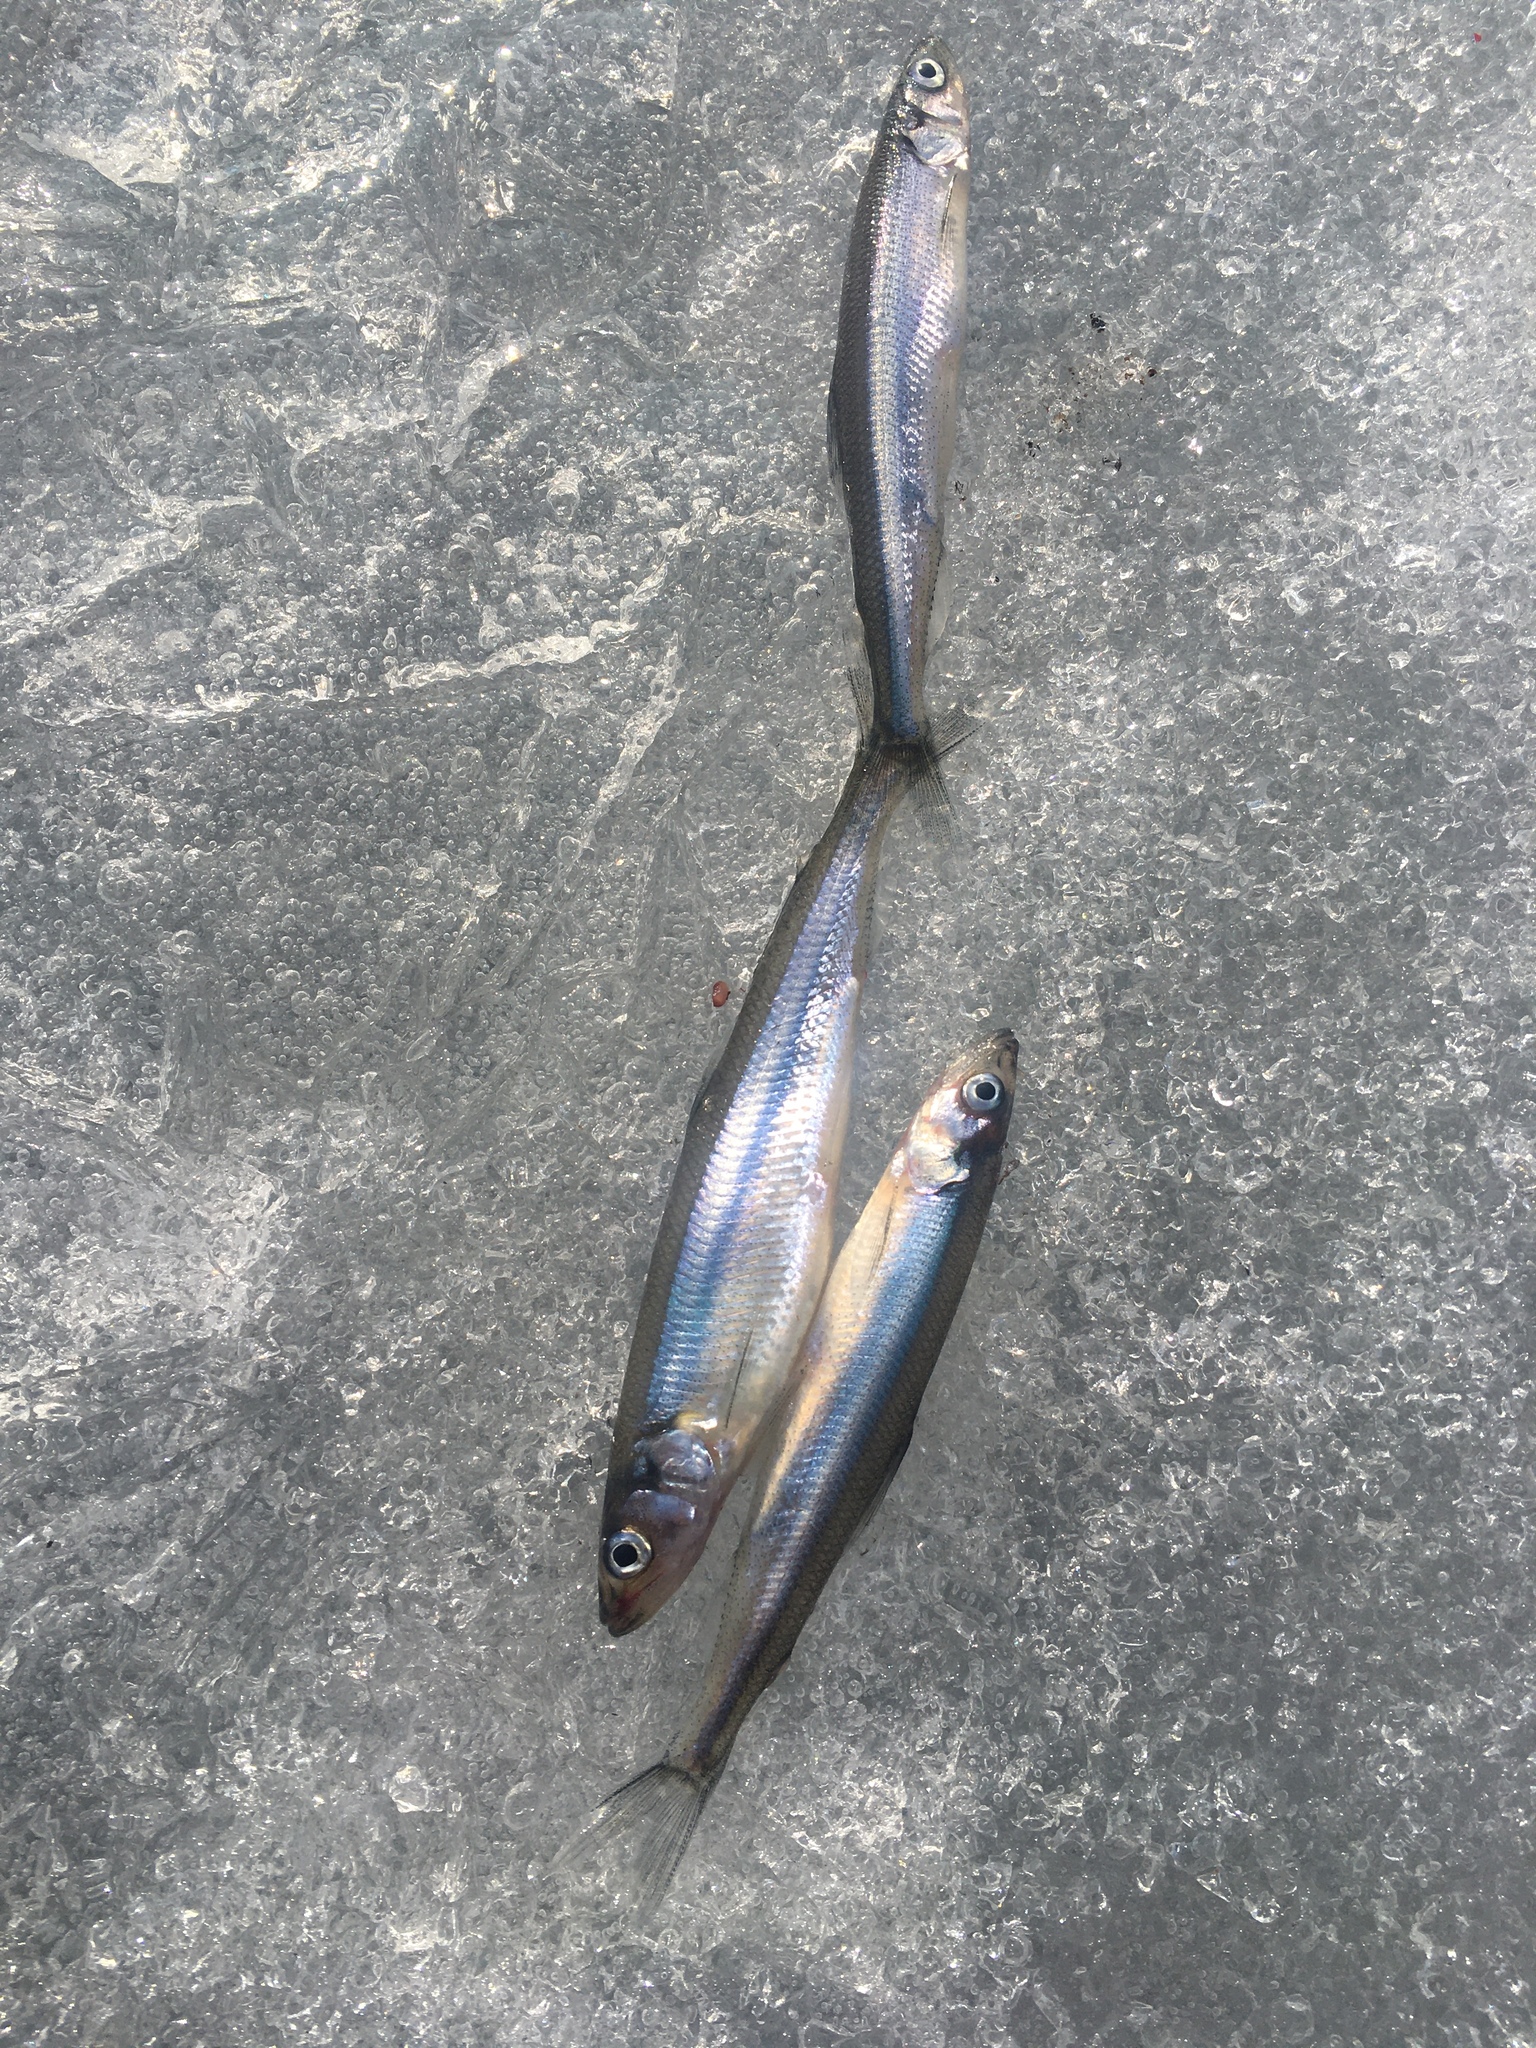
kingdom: Animalia
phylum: Chordata
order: Osmeriformes
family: Osmeridae
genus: Osmerus
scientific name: Osmerus eperlanus
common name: Smelt
